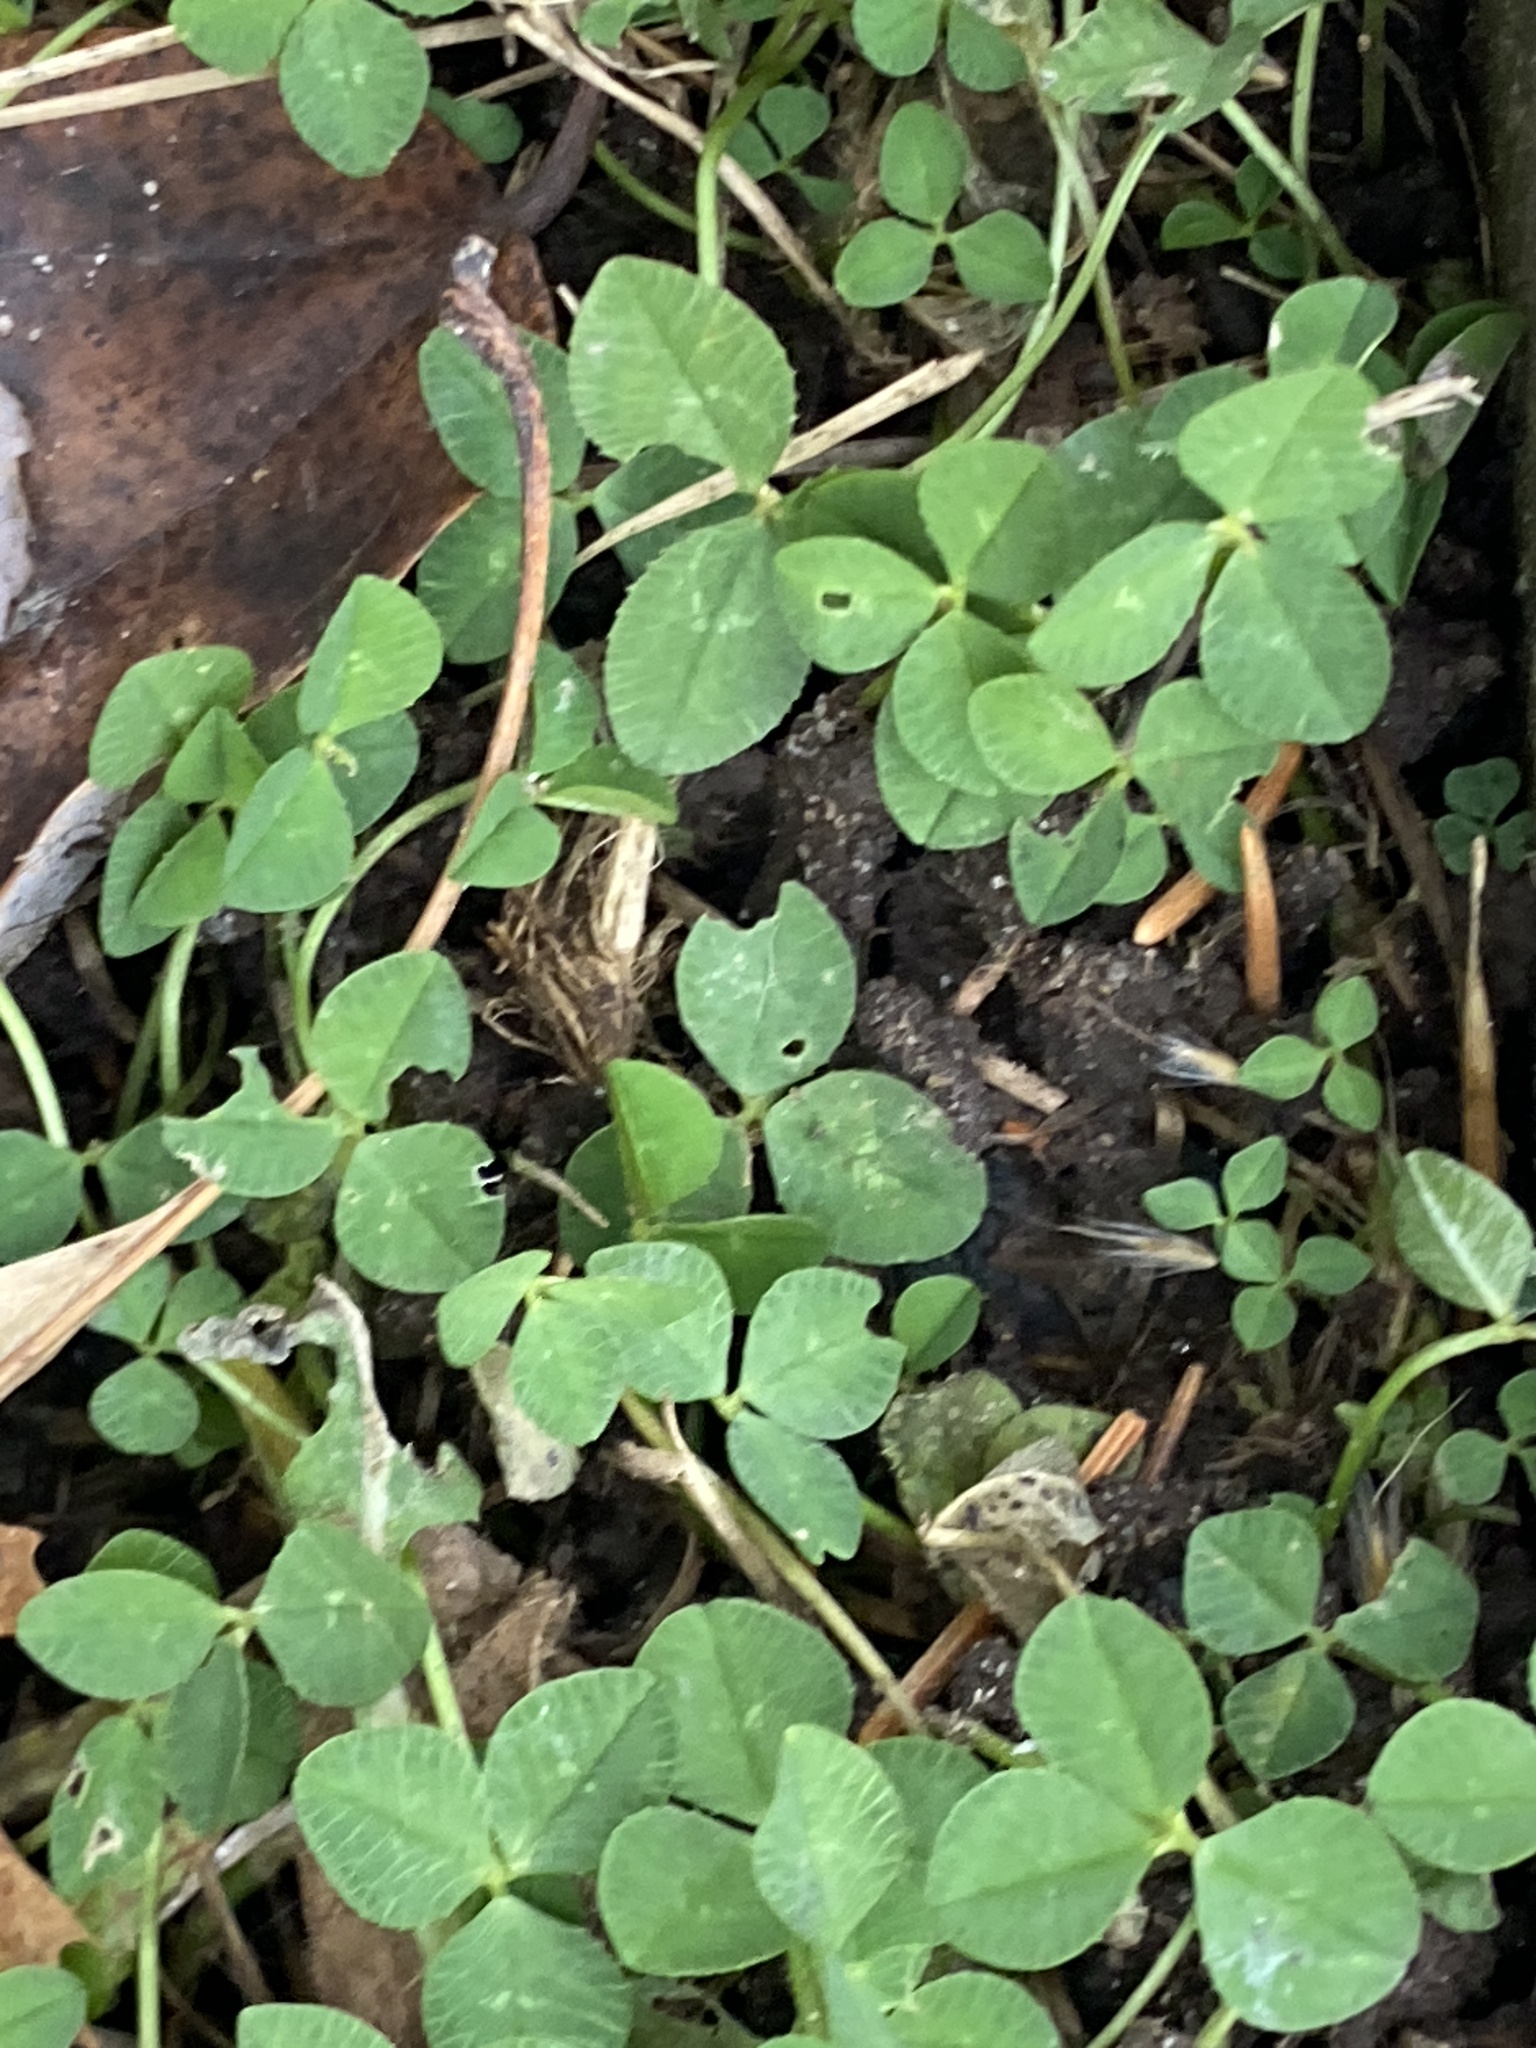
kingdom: Plantae
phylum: Tracheophyta
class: Magnoliopsida
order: Fabales
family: Fabaceae
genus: Trifolium
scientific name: Trifolium repens
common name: White clover
